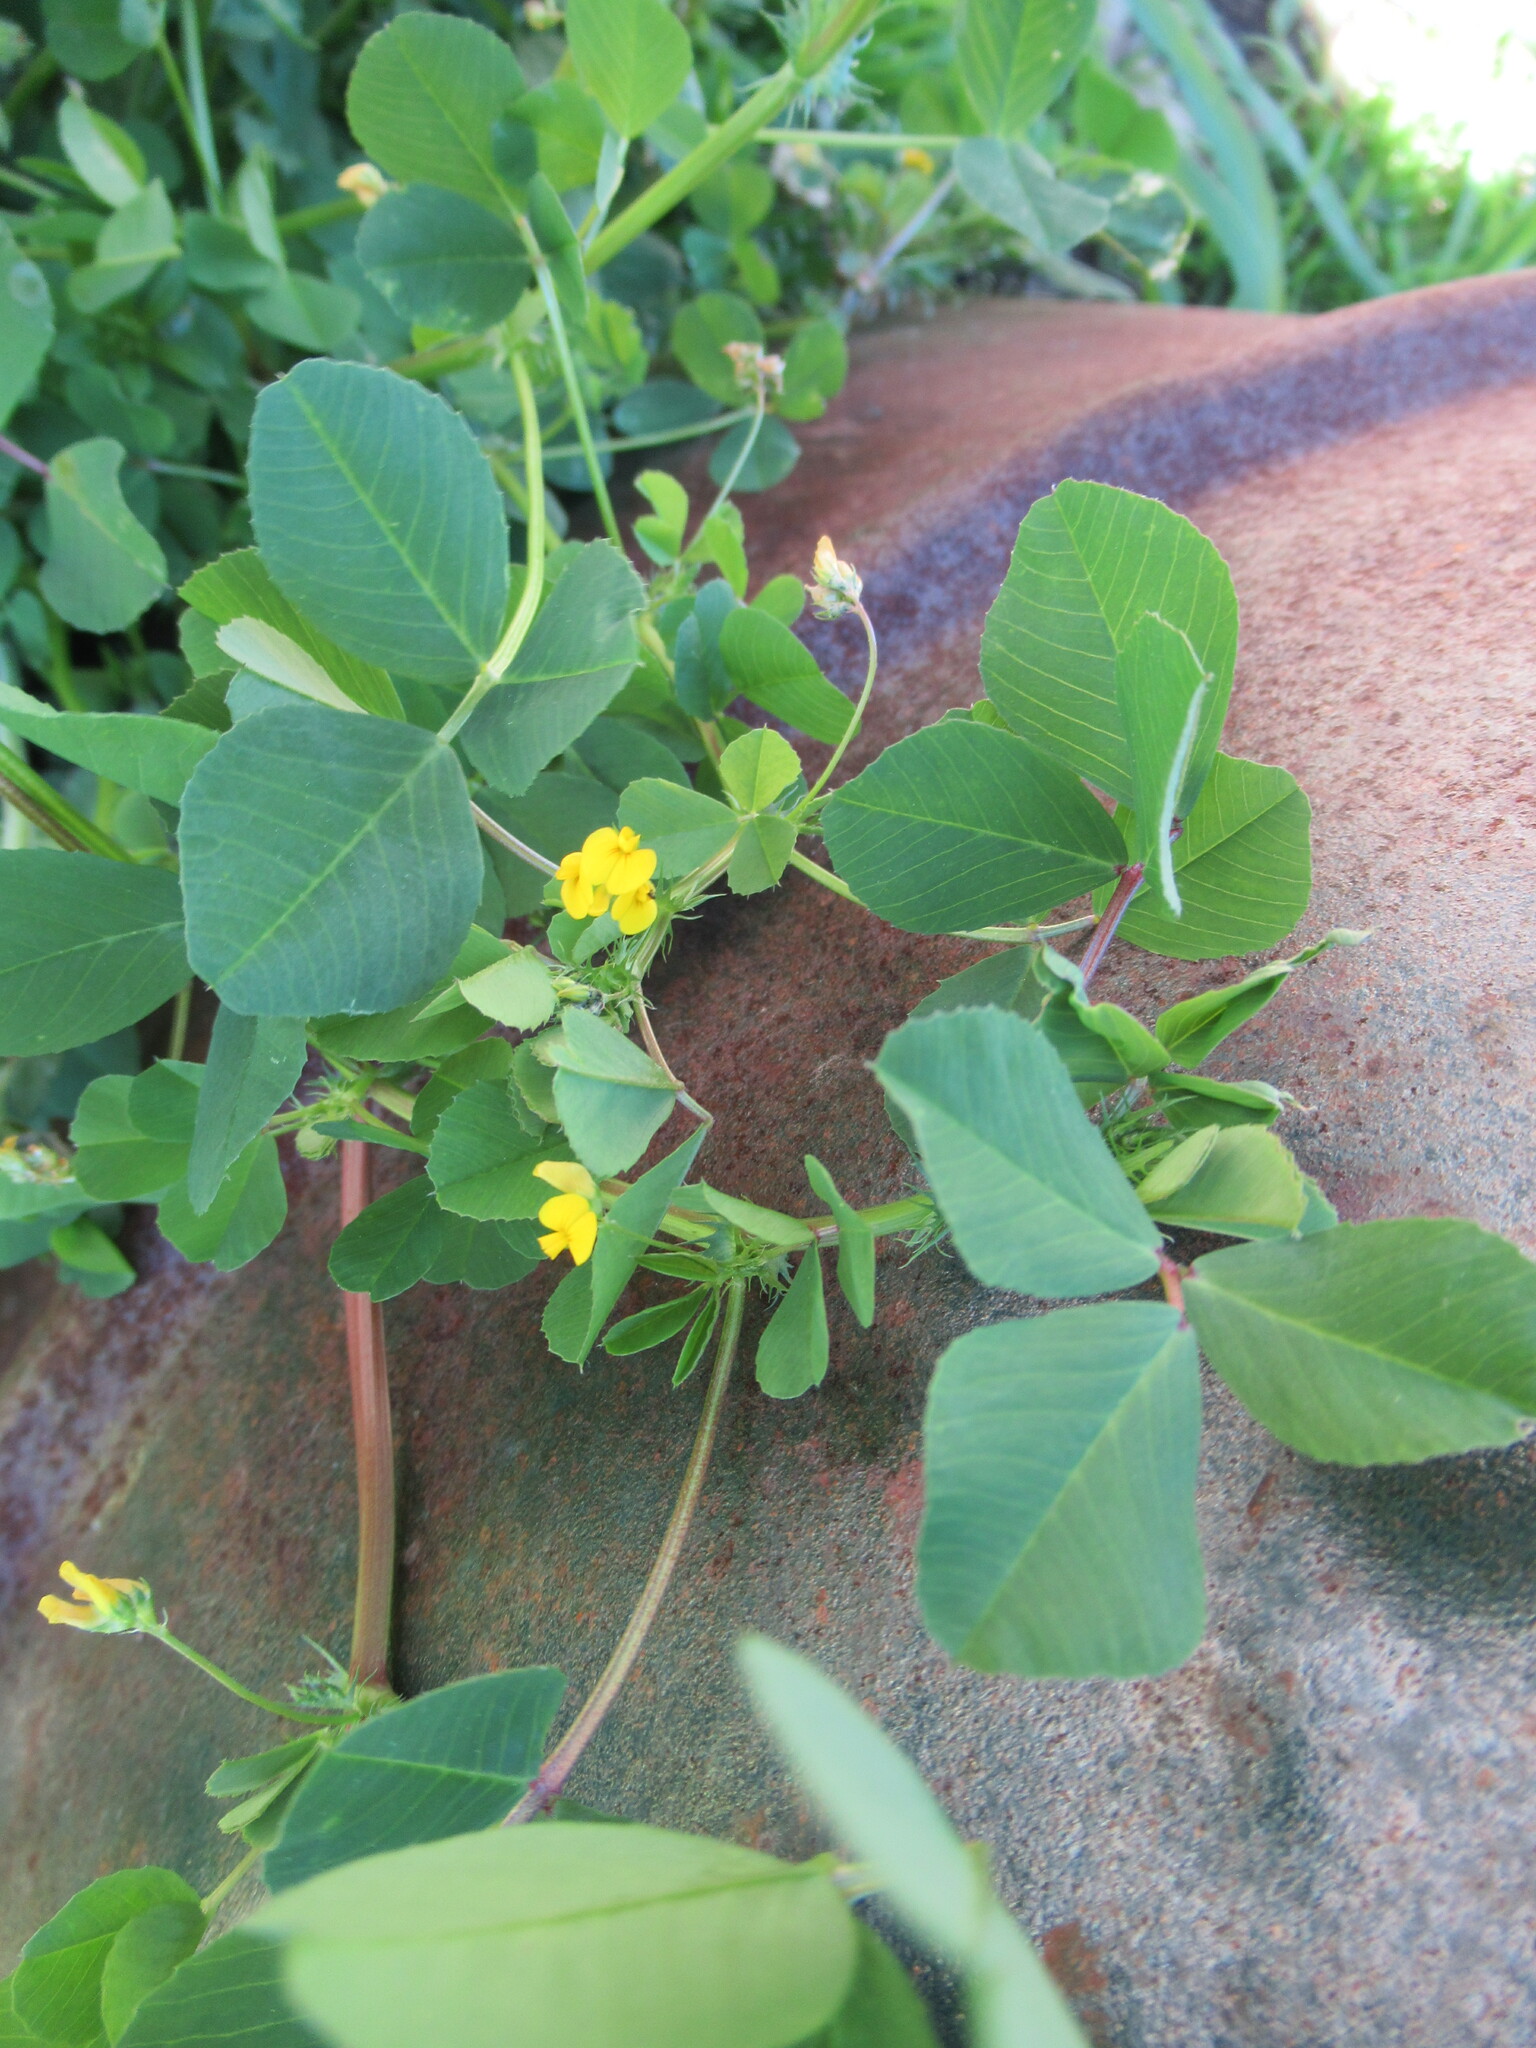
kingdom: Plantae
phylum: Tracheophyta
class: Magnoliopsida
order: Fabales
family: Fabaceae
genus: Medicago
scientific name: Medicago polymorpha
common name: Burclover
